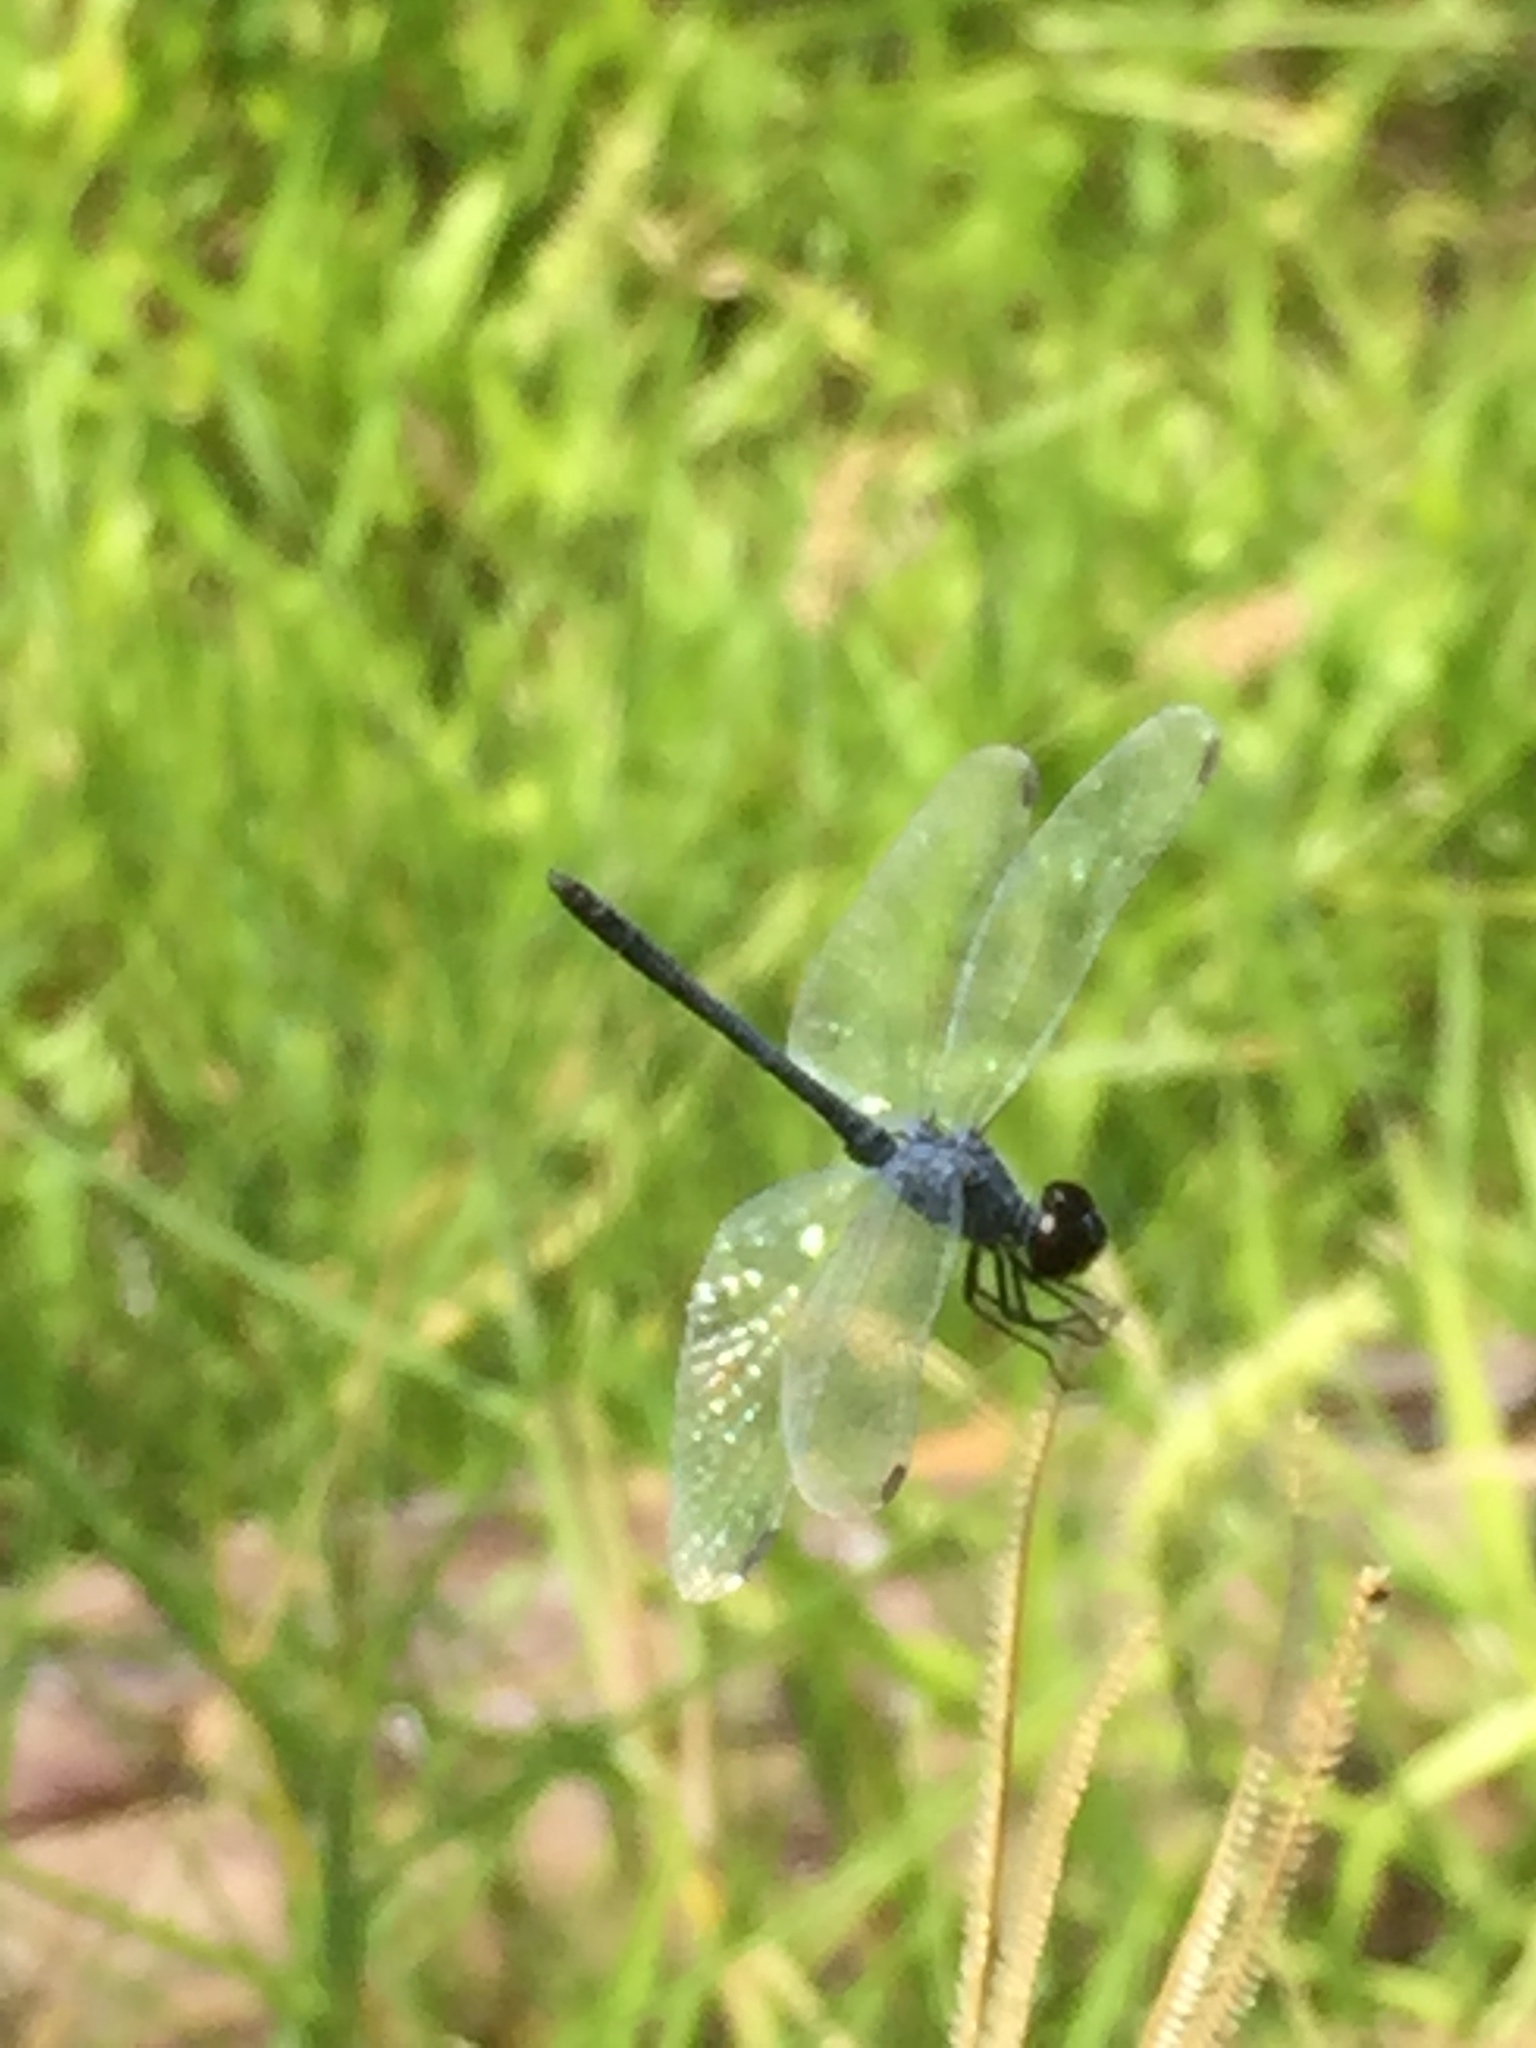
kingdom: Animalia
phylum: Arthropoda
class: Insecta
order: Odonata
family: Libellulidae
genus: Erythrodiplax
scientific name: Erythrodiplax berenice
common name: Seaside dragonlet
